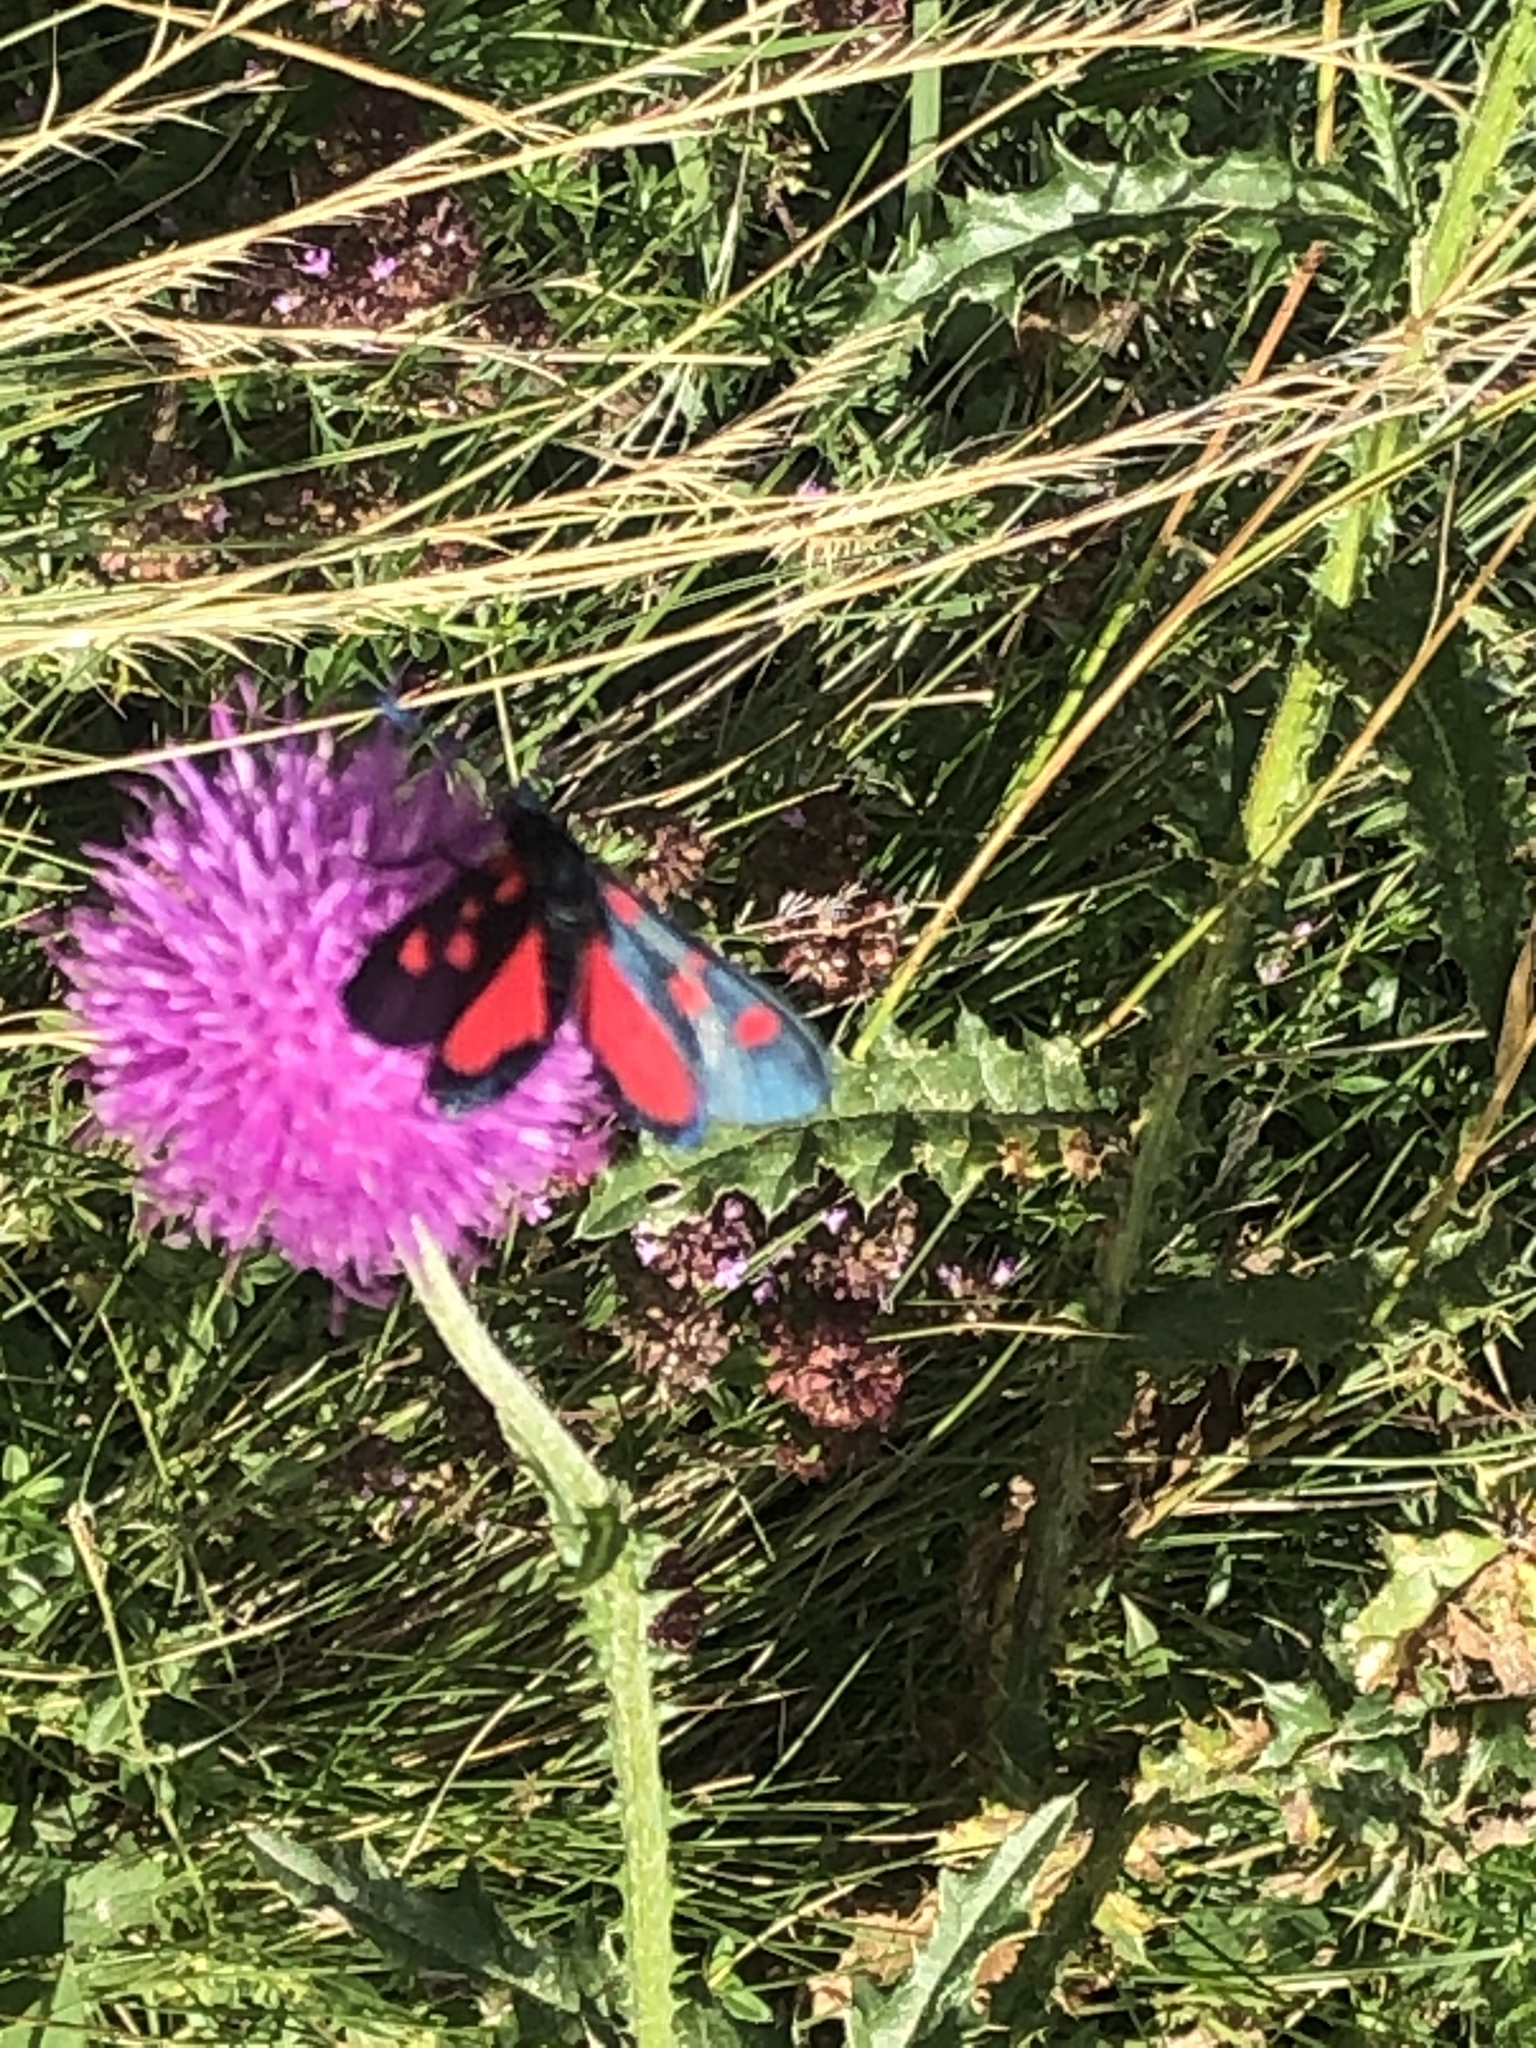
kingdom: Animalia
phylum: Arthropoda
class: Insecta
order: Lepidoptera
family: Zygaenidae
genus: Zygaena
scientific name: Zygaena lonicerae
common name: Narrow-bordered five-spot burnet
